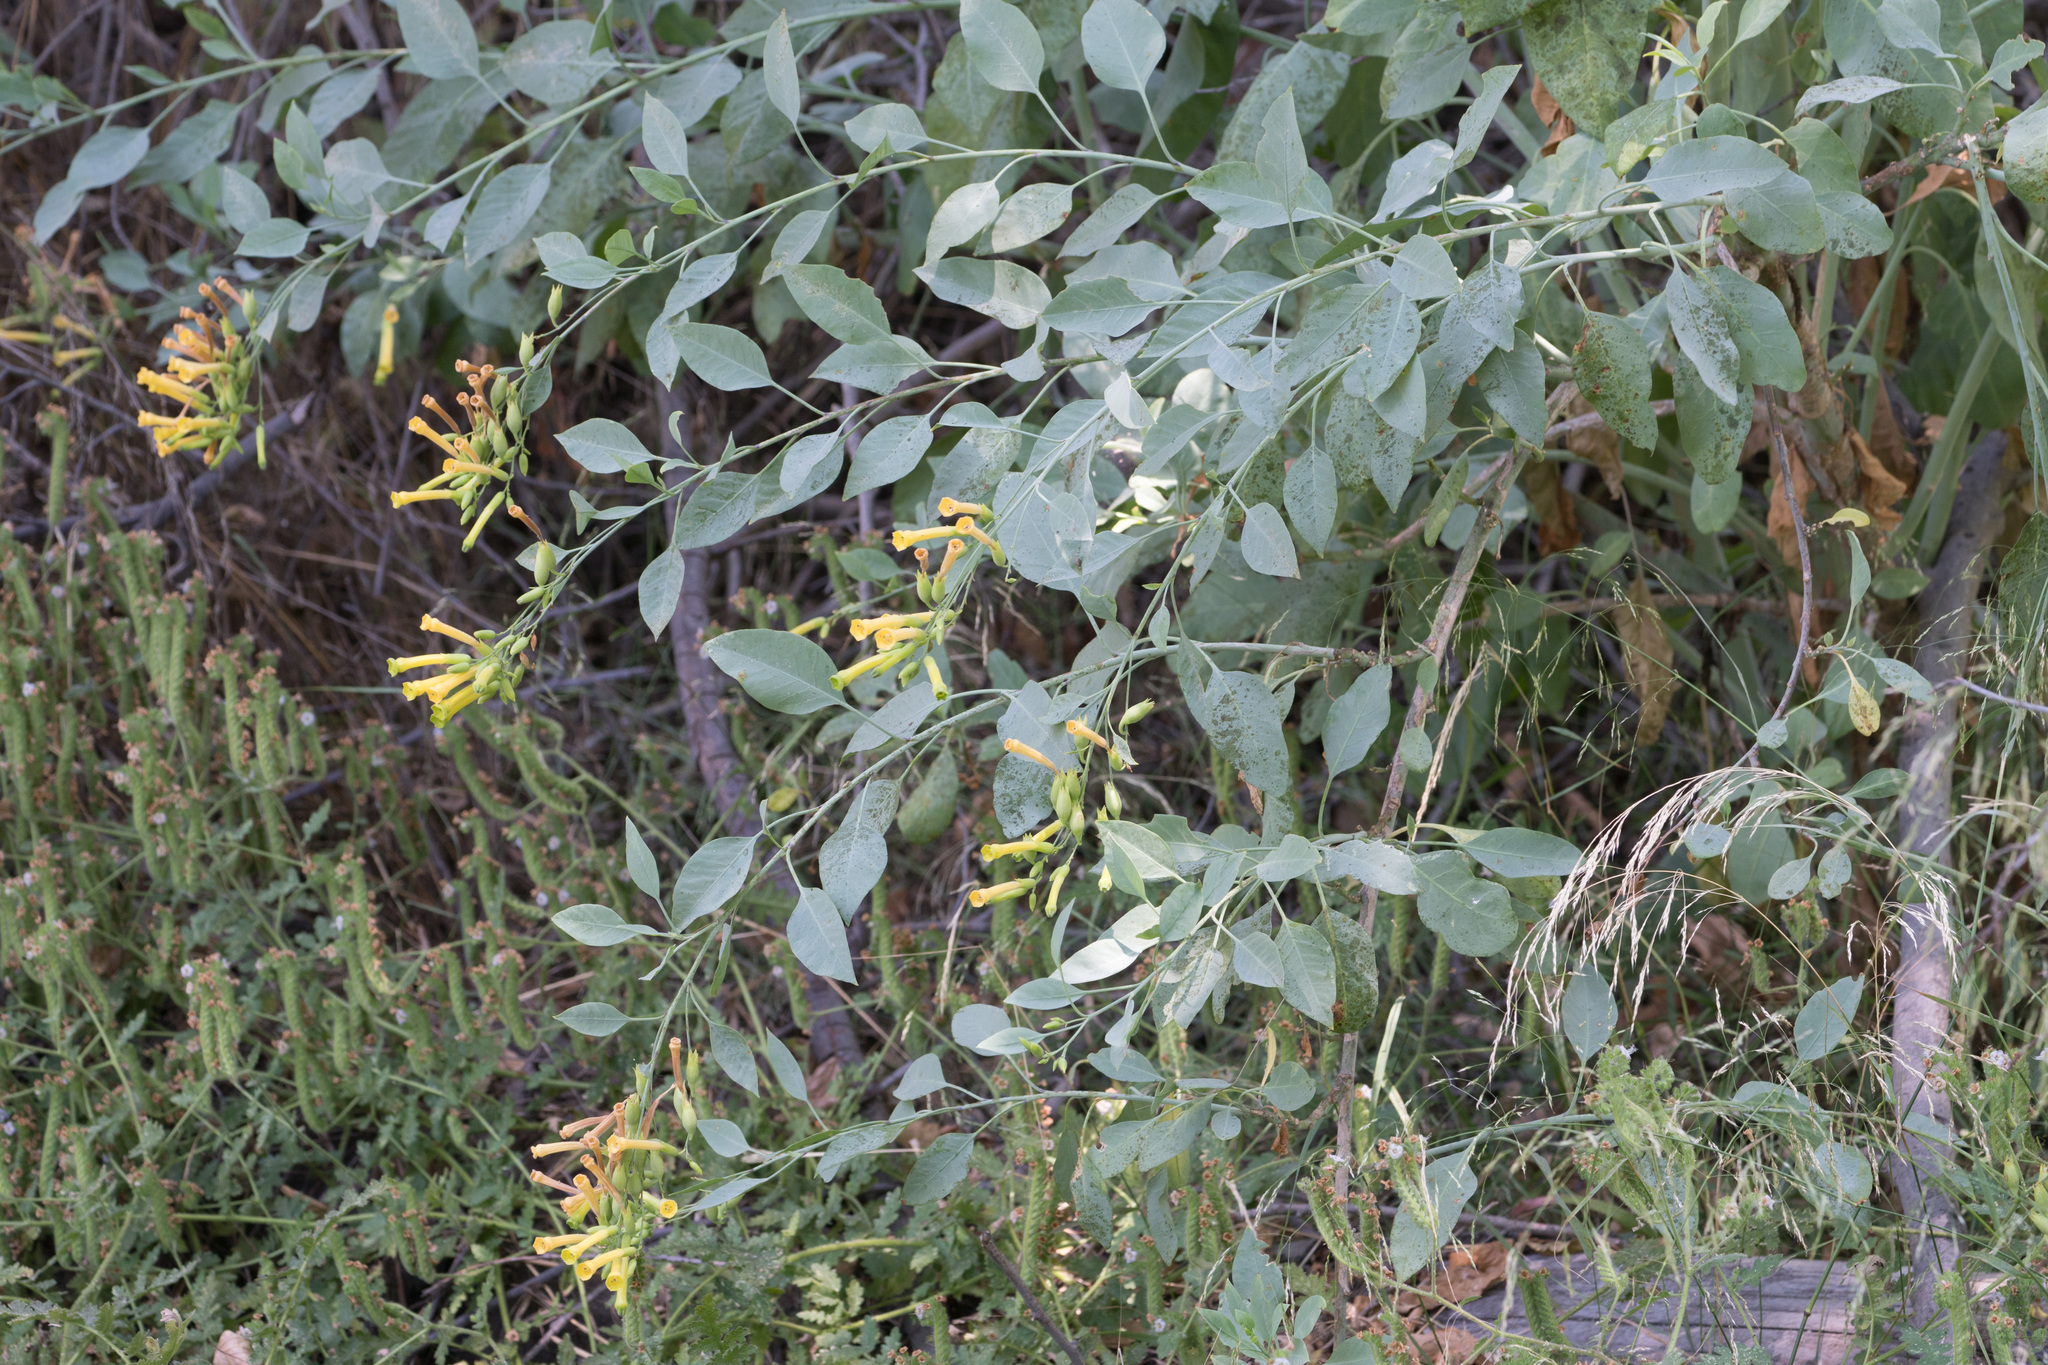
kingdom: Plantae
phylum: Tracheophyta
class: Magnoliopsida
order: Solanales
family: Solanaceae
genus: Nicotiana
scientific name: Nicotiana glauca
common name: Tree tobacco
